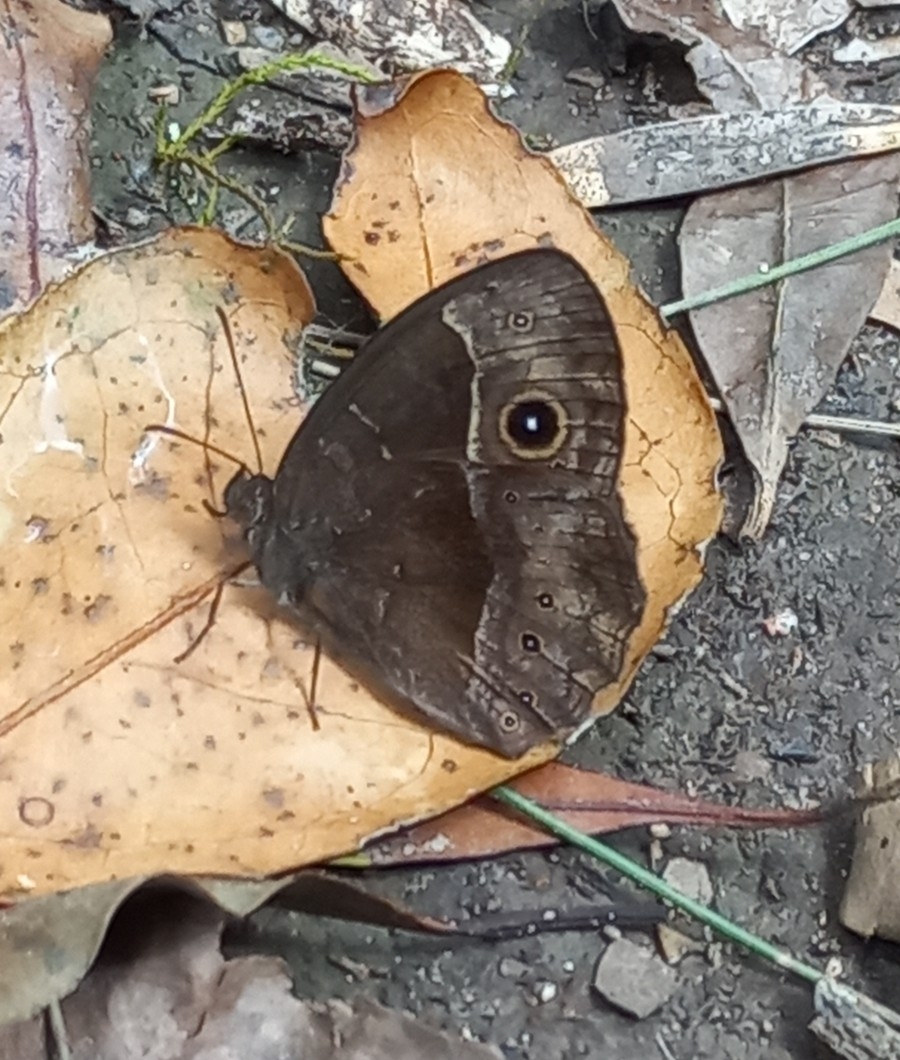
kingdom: Animalia
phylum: Arthropoda
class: Insecta
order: Lepidoptera
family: Nymphalidae
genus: Mycalesis
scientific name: Mycalesis rhacotis
